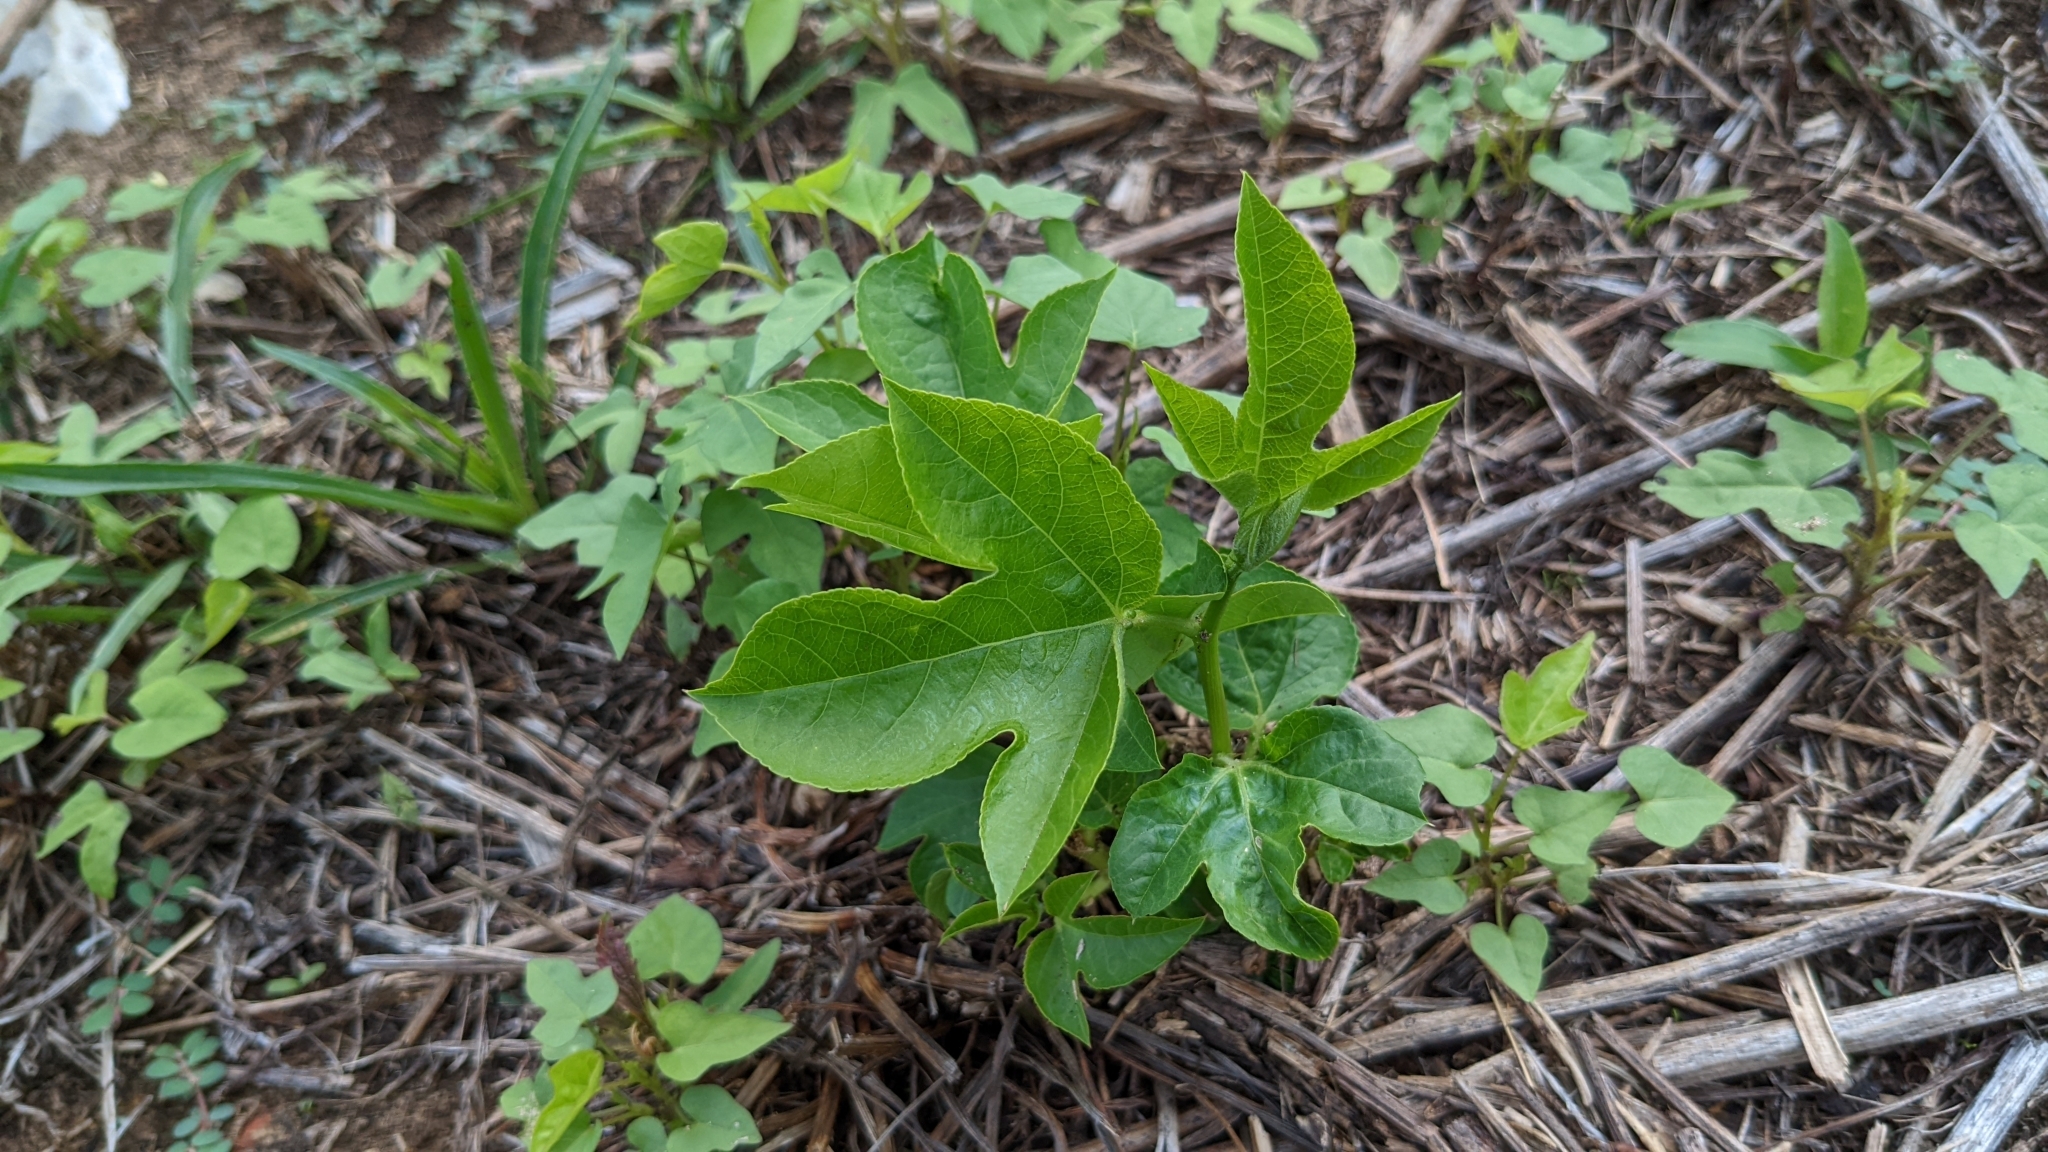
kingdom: Plantae
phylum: Tracheophyta
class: Magnoliopsida
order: Malpighiales
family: Passifloraceae
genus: Passiflora
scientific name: Passiflora incarnata
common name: Apricot-vine
